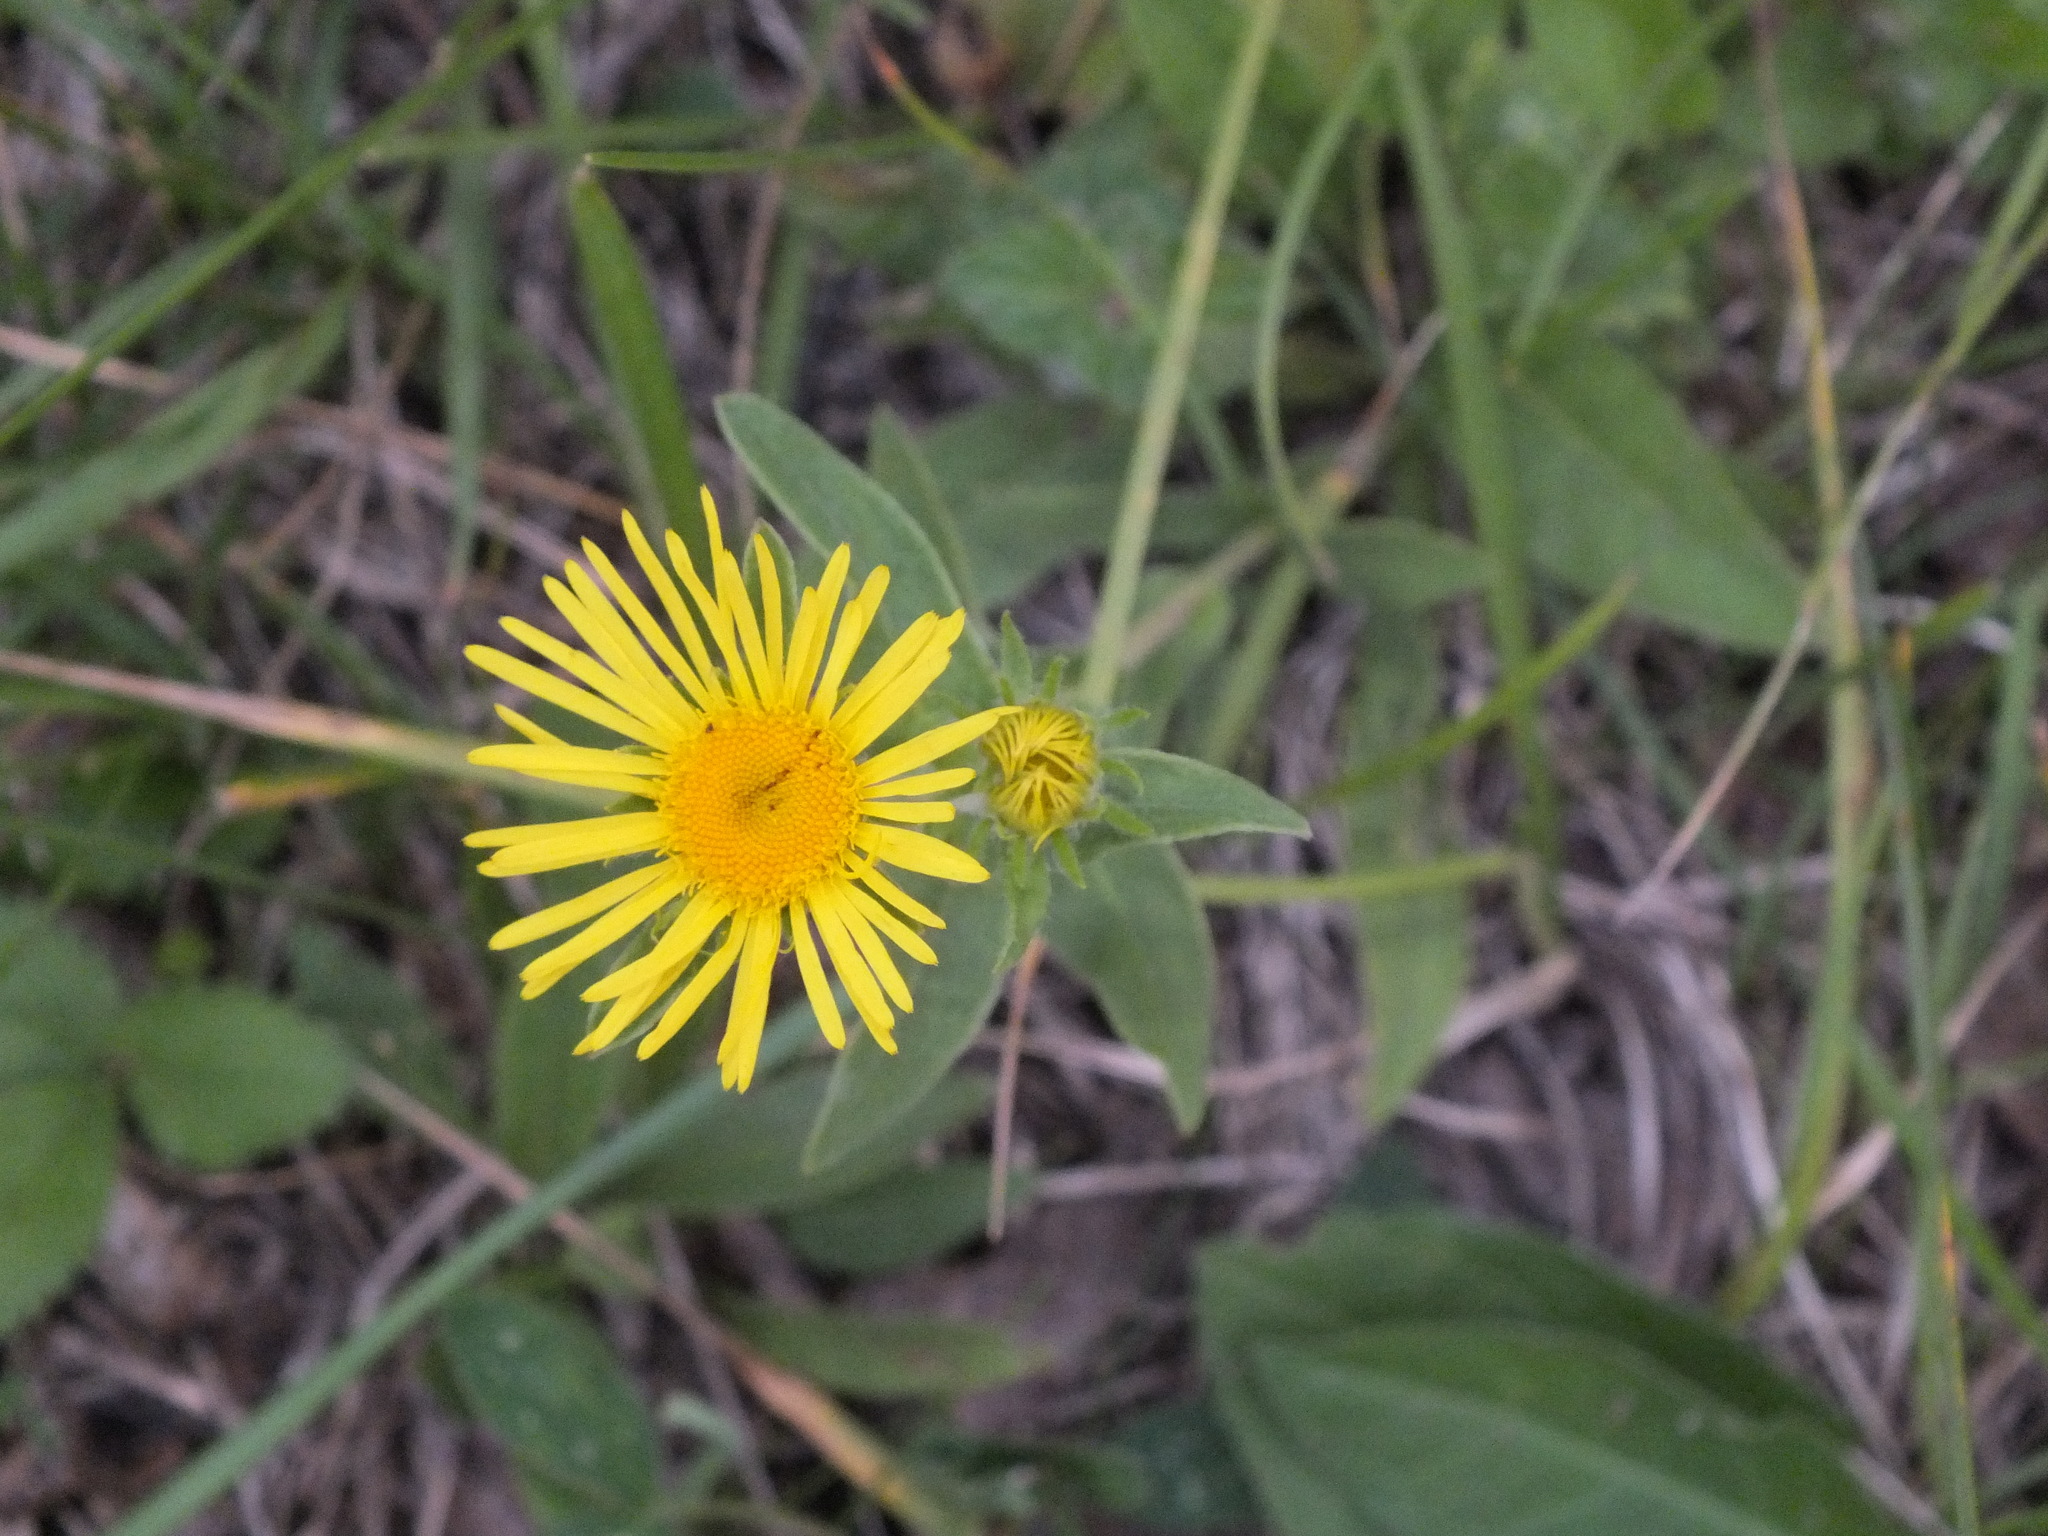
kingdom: Plantae
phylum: Tracheophyta
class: Magnoliopsida
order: Asterales
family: Asteraceae
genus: Pentanema
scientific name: Pentanema britannicum
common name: British elecampane
